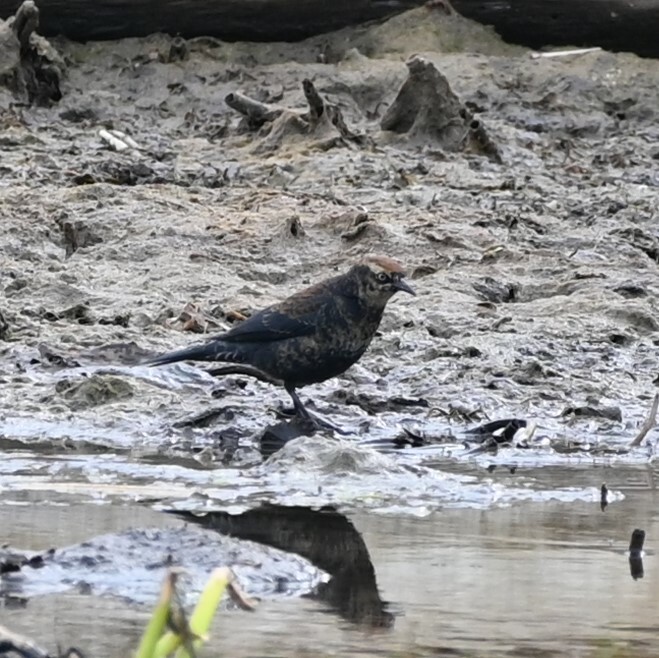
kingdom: Animalia
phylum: Chordata
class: Aves
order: Passeriformes
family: Icteridae
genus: Euphagus
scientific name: Euphagus carolinus
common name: Rusty blackbird
